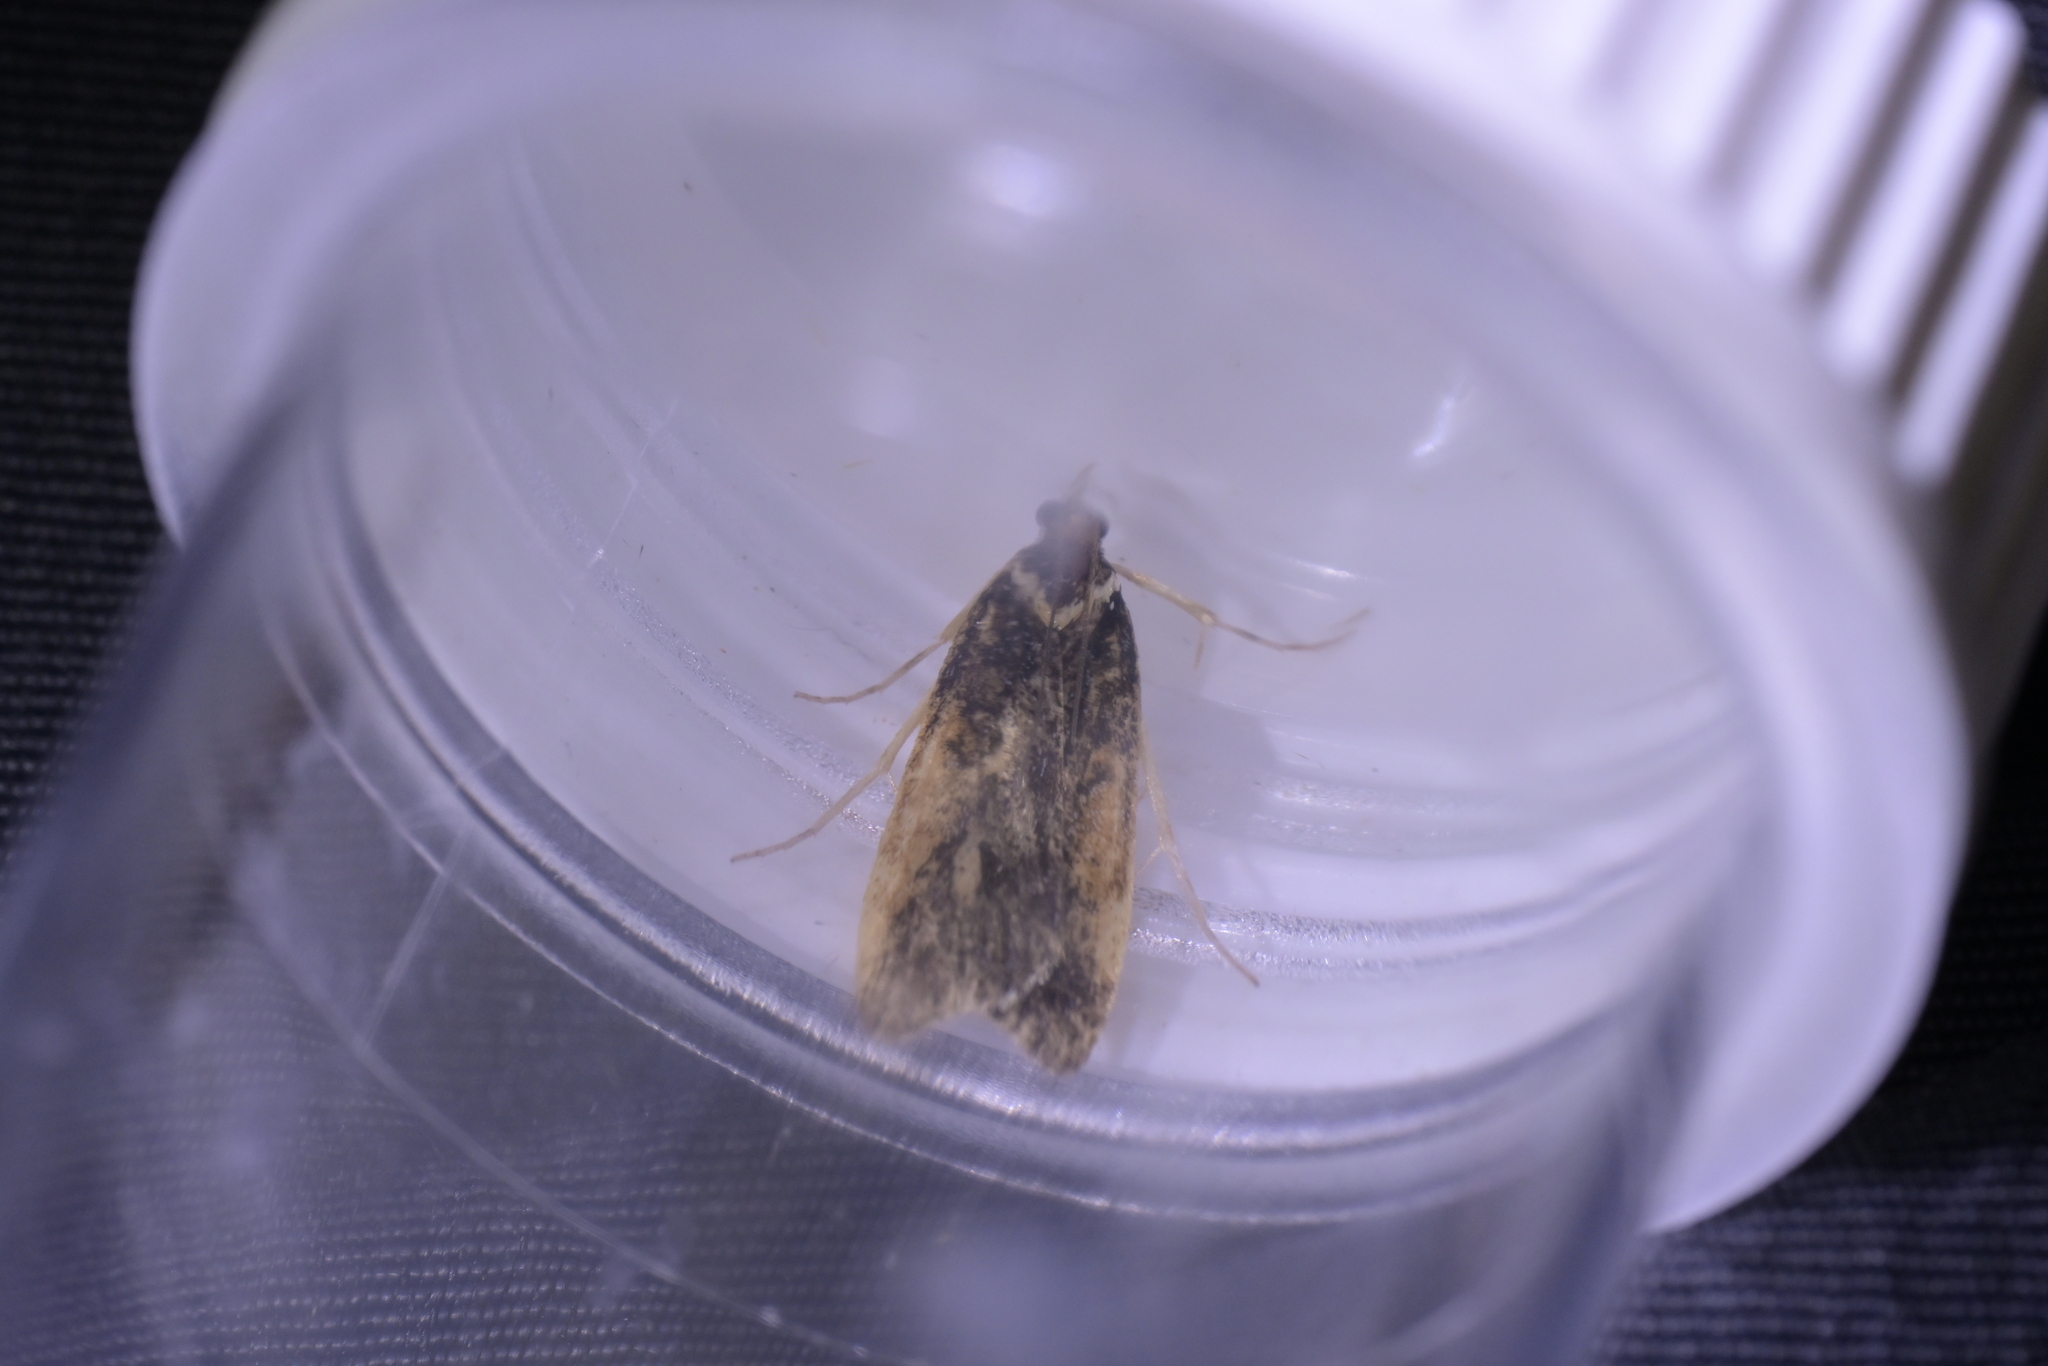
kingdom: Animalia
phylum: Arthropoda
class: Insecta
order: Lepidoptera
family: Crambidae
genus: Scoparia
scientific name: Scoparia phalerias
